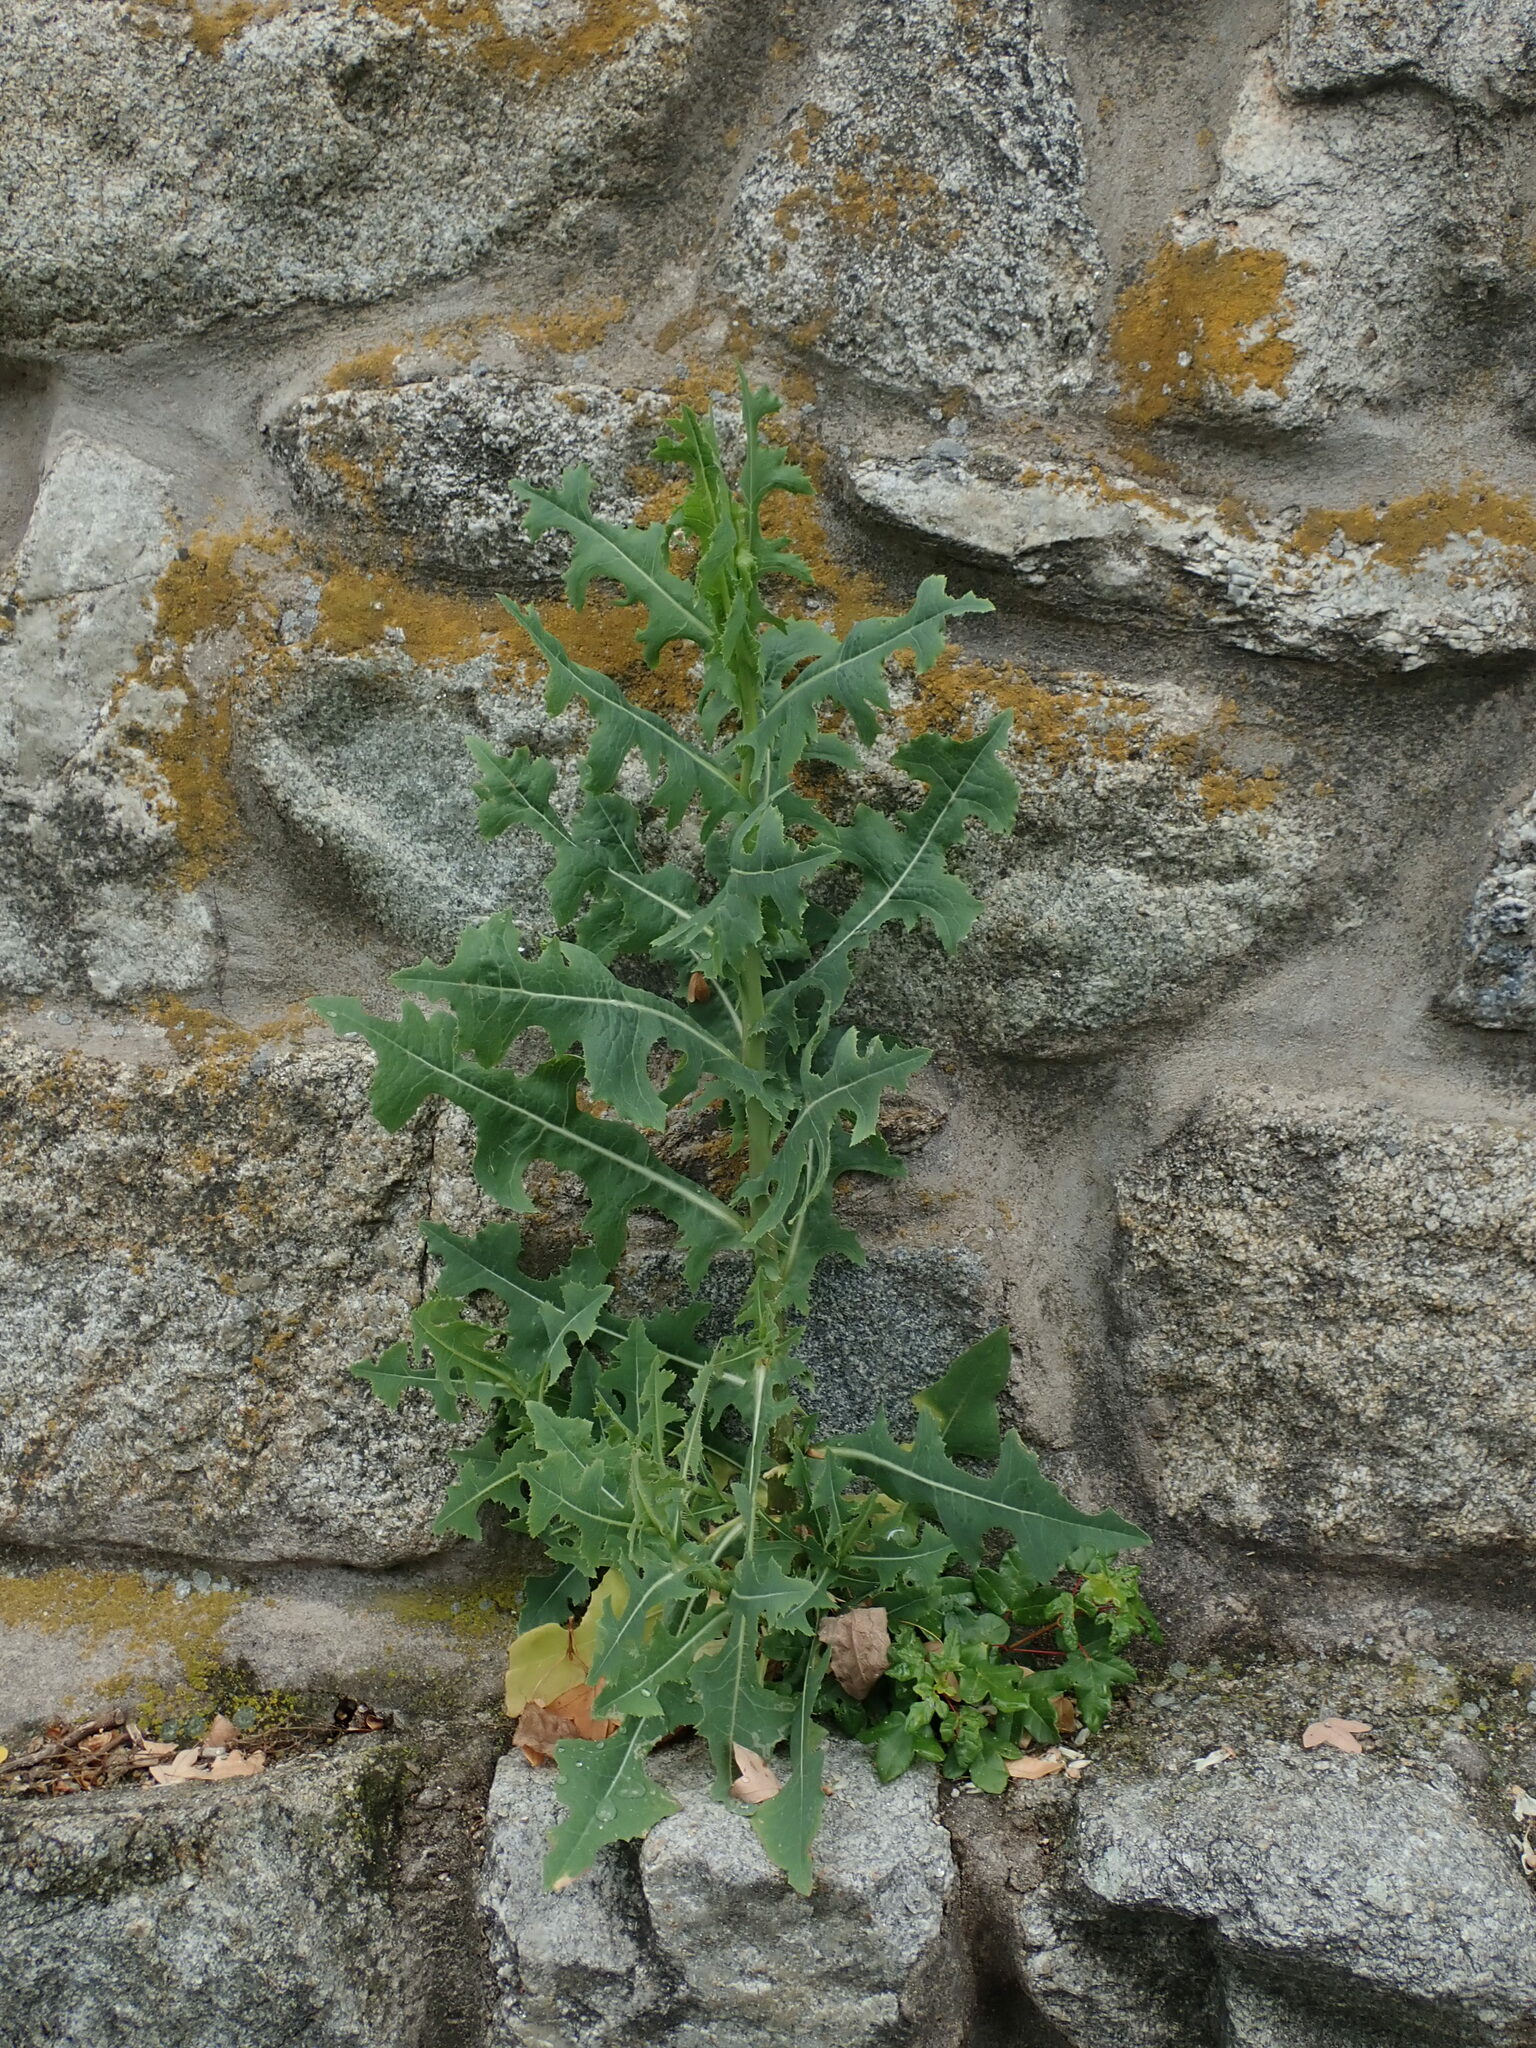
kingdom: Plantae
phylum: Tracheophyta
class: Magnoliopsida
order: Asterales
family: Asteraceae
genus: Lactuca
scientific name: Lactuca serriola
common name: Prickly lettuce
